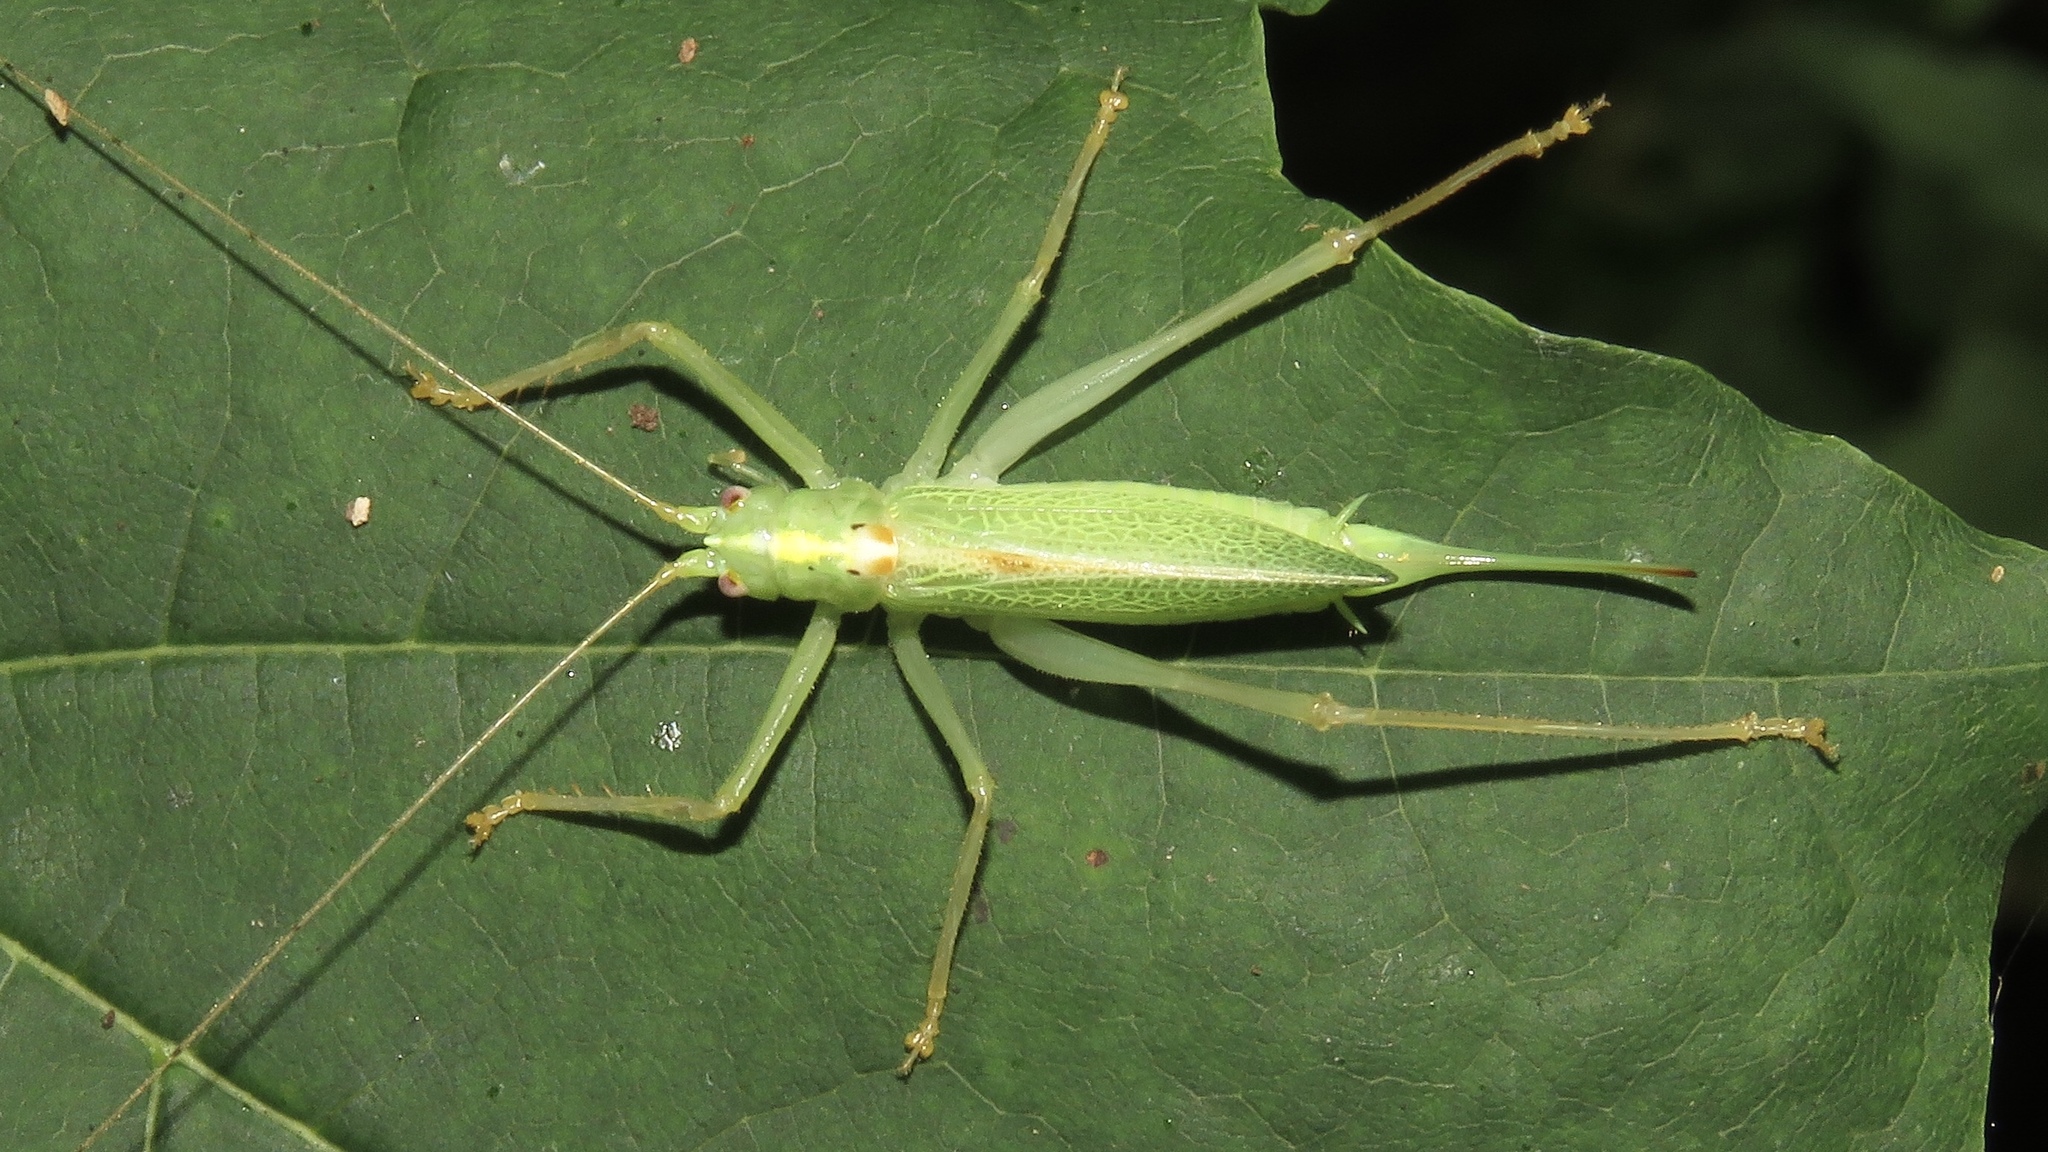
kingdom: Animalia
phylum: Arthropoda
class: Insecta
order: Orthoptera
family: Tettigoniidae
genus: Meconema
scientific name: Meconema thalassinum
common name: Oak bush-cricket
